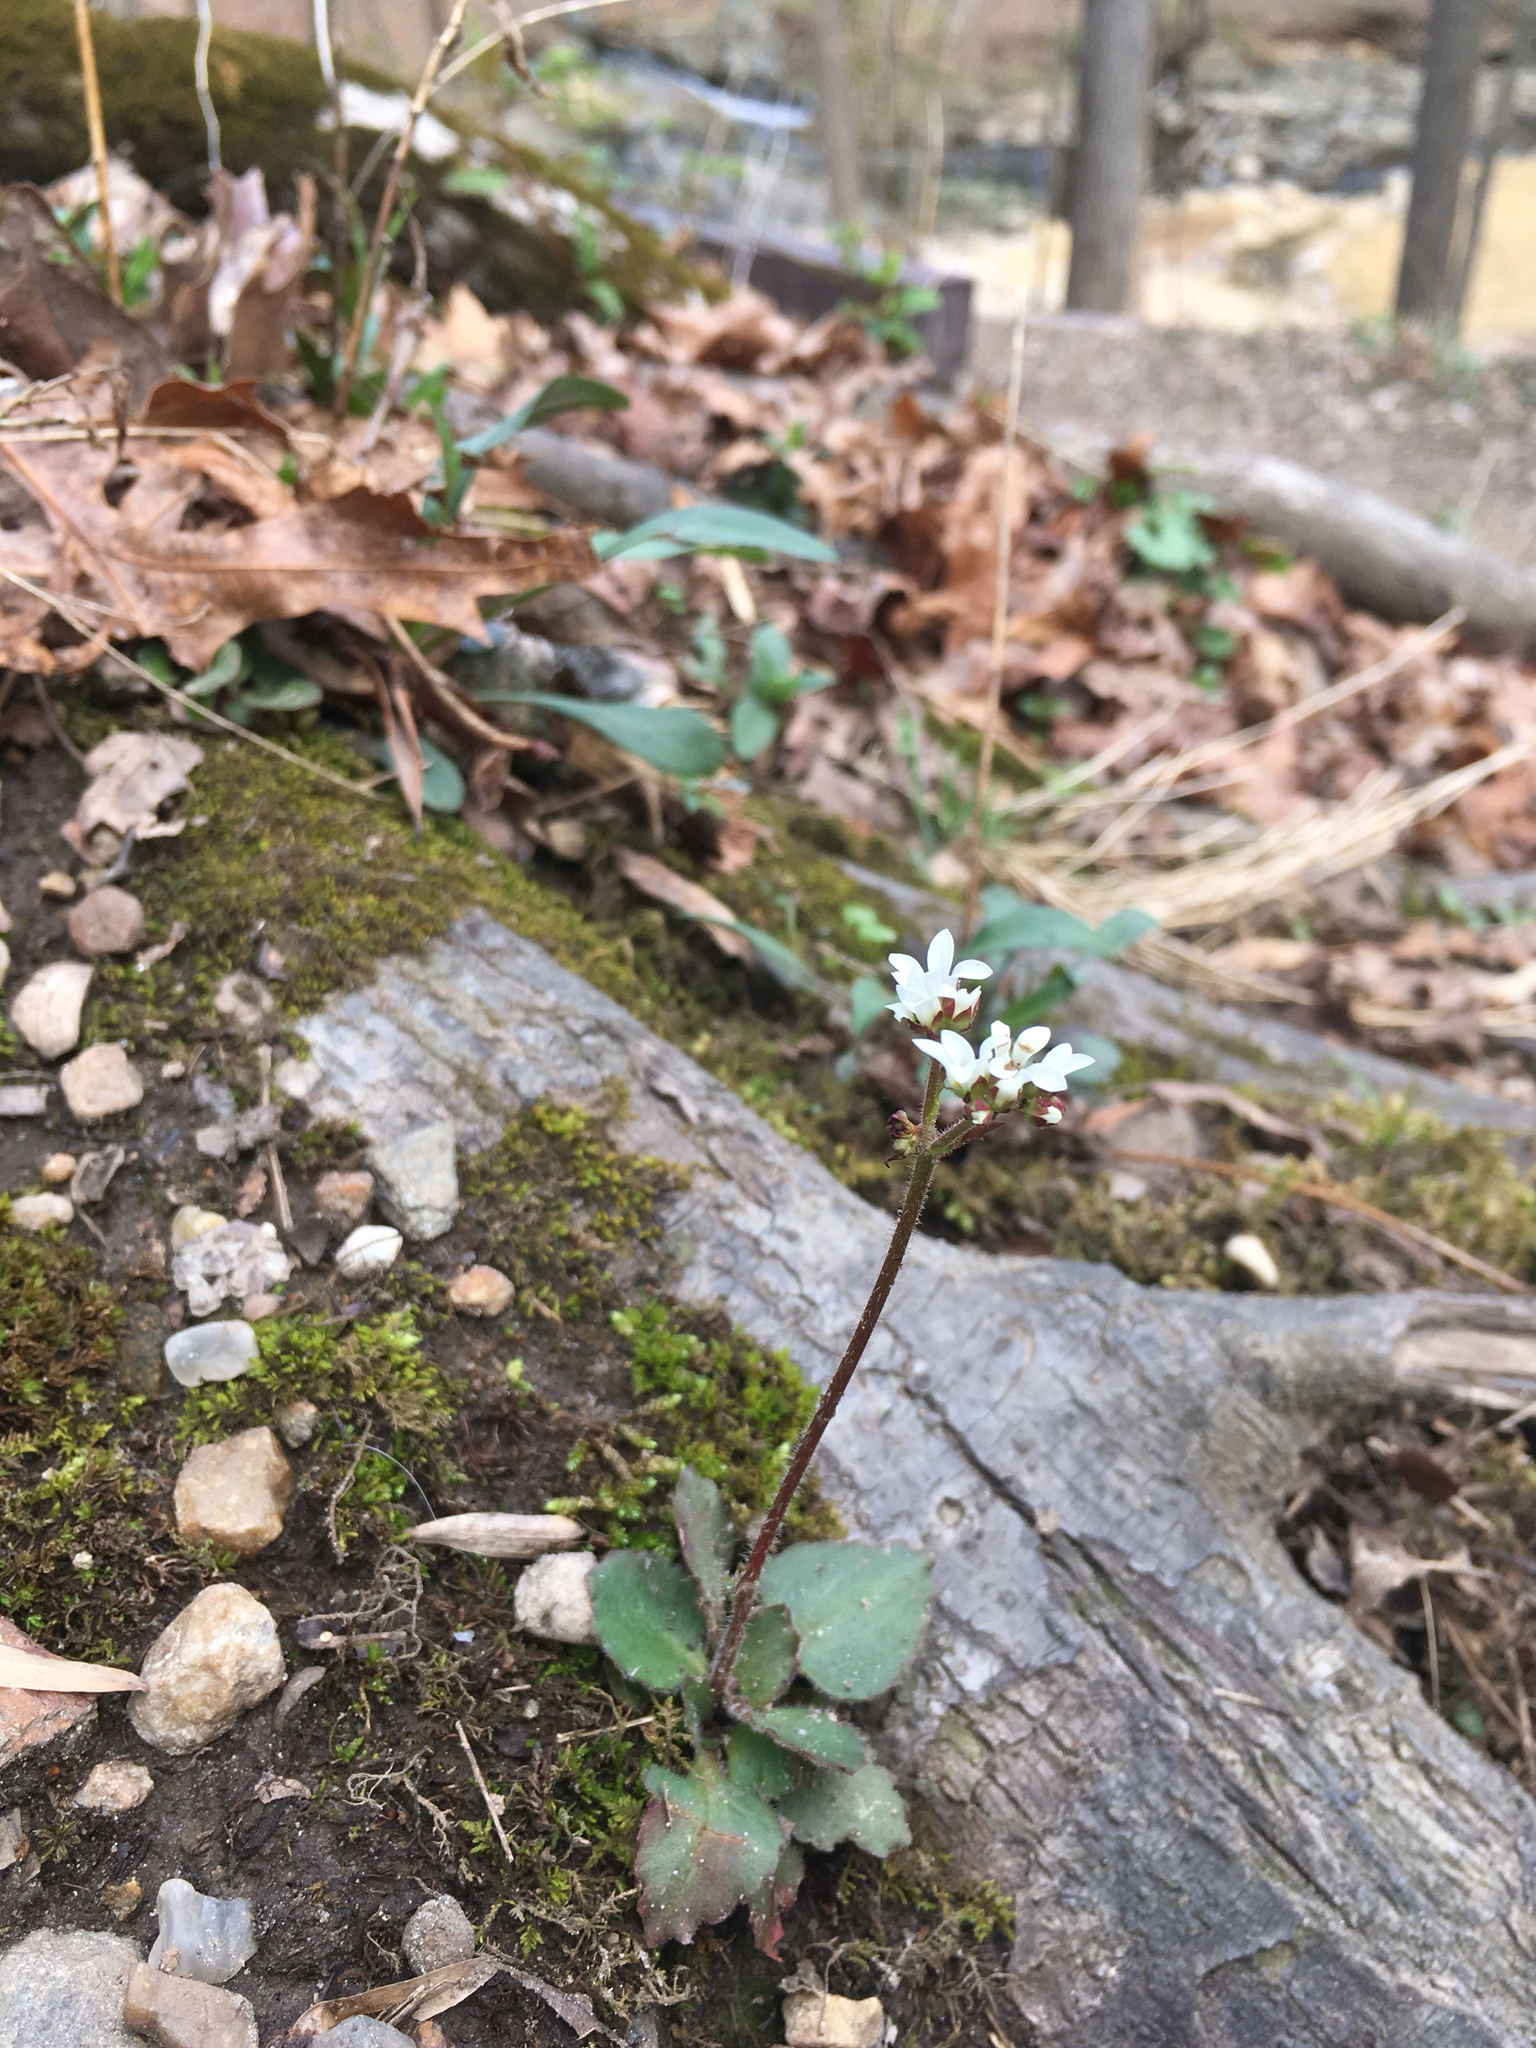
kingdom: Plantae
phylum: Tracheophyta
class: Magnoliopsida
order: Saxifragales
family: Saxifragaceae
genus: Micranthes
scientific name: Micranthes virginiensis
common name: Early saxifrage
